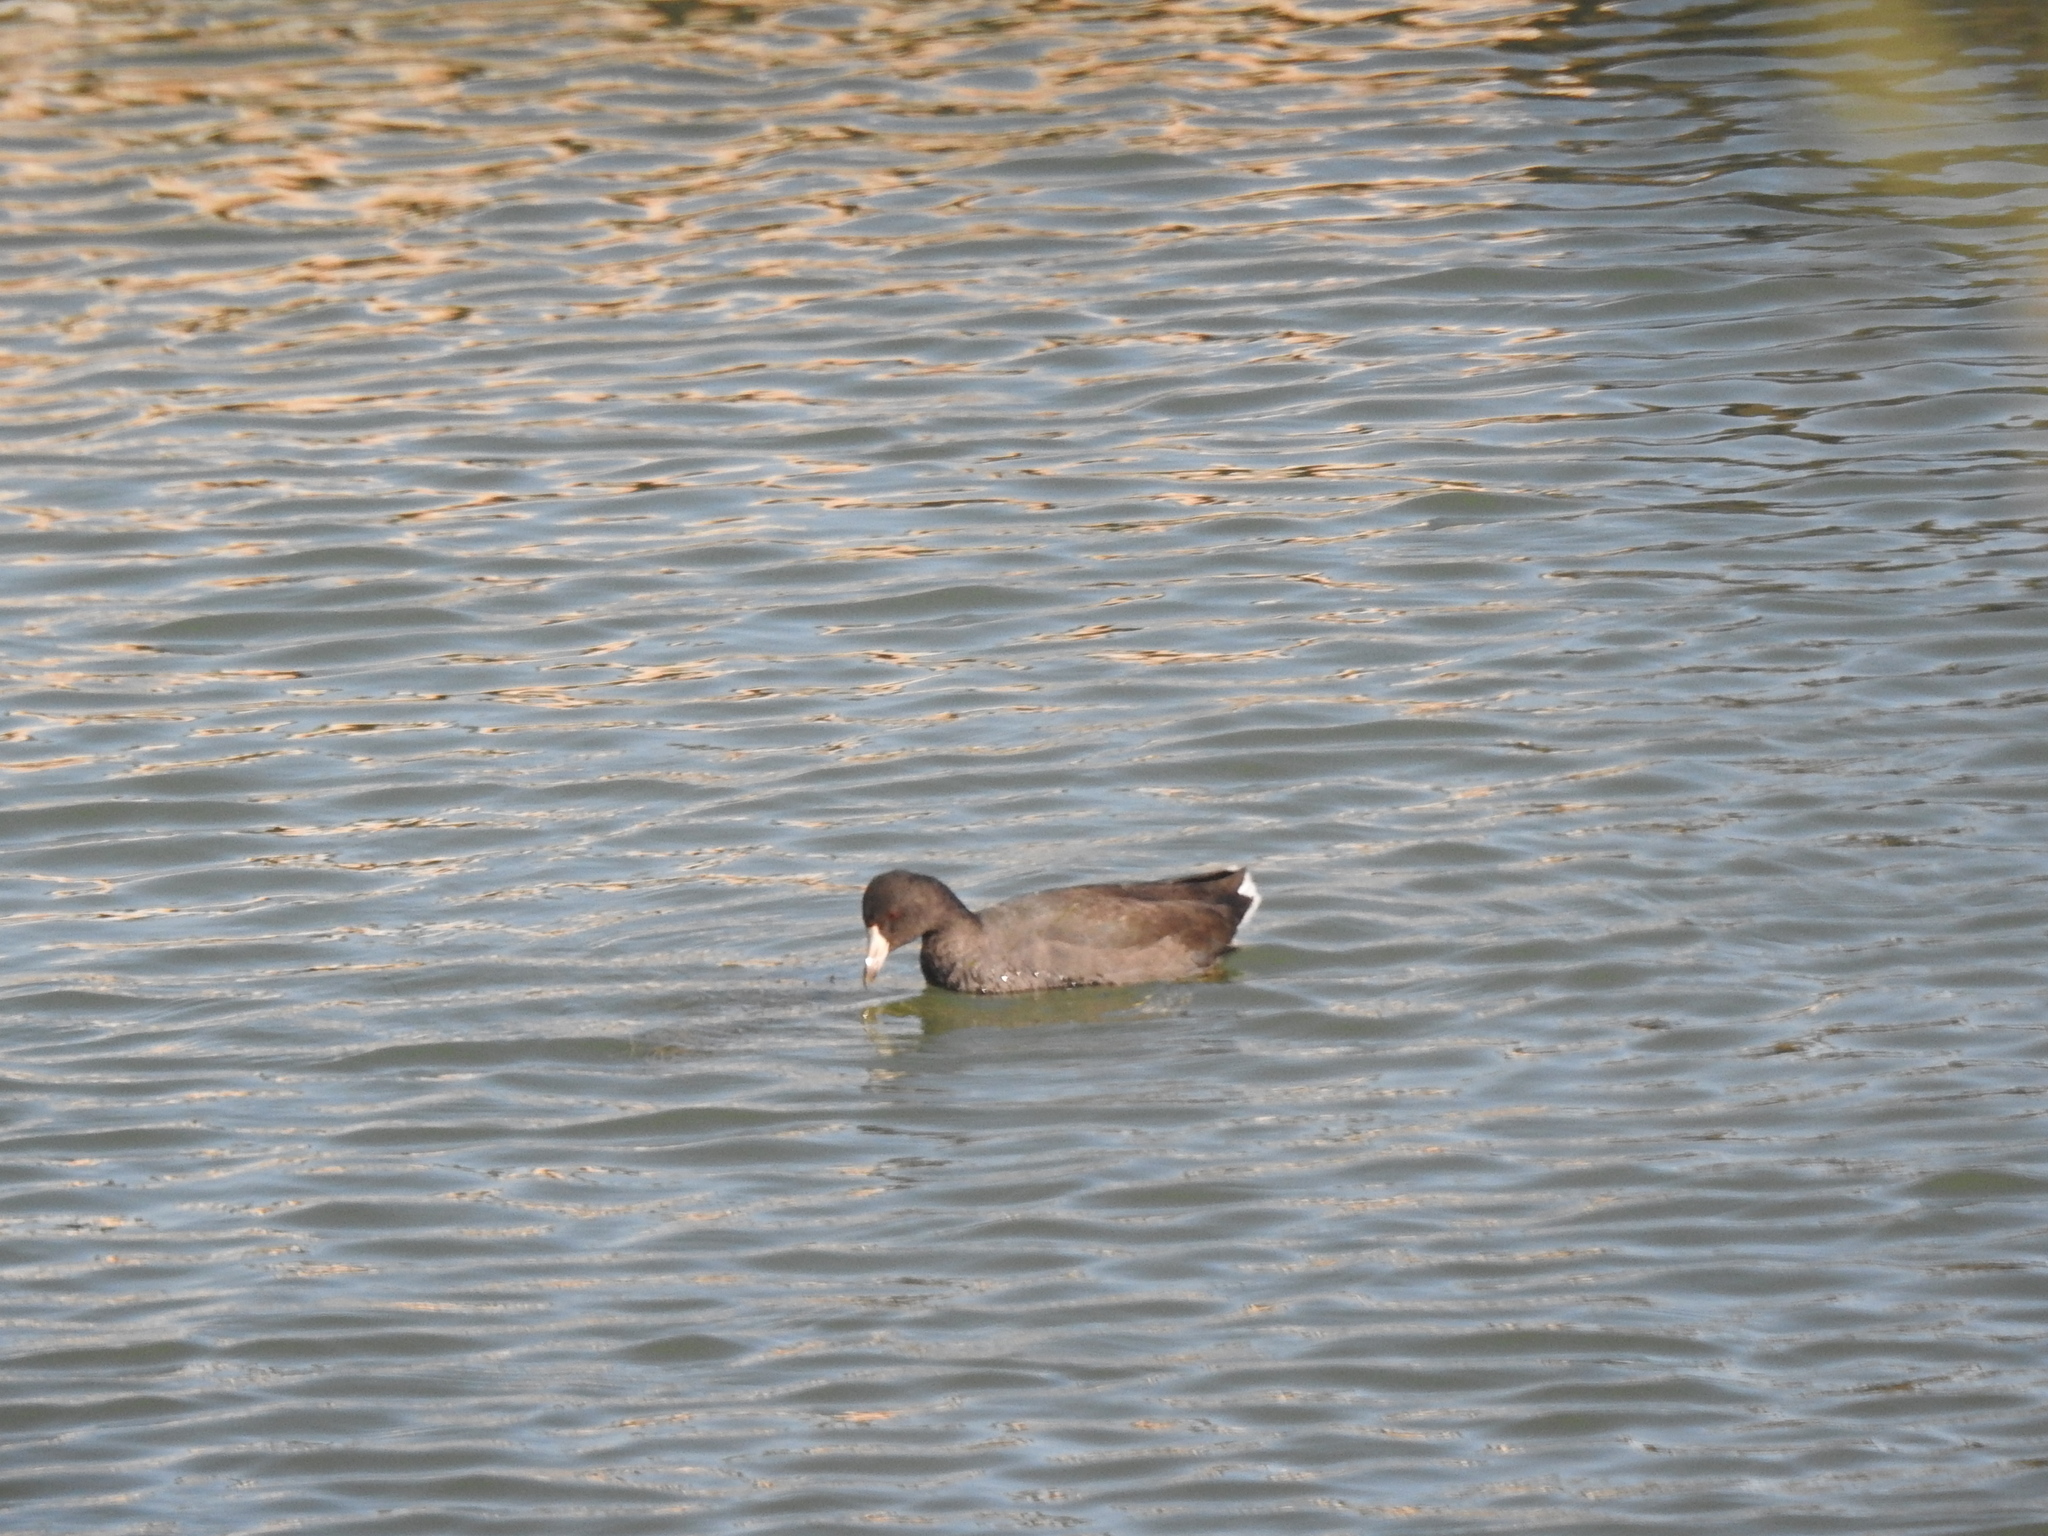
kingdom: Animalia
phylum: Chordata
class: Aves
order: Gruiformes
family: Rallidae
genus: Fulica
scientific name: Fulica americana
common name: American coot
